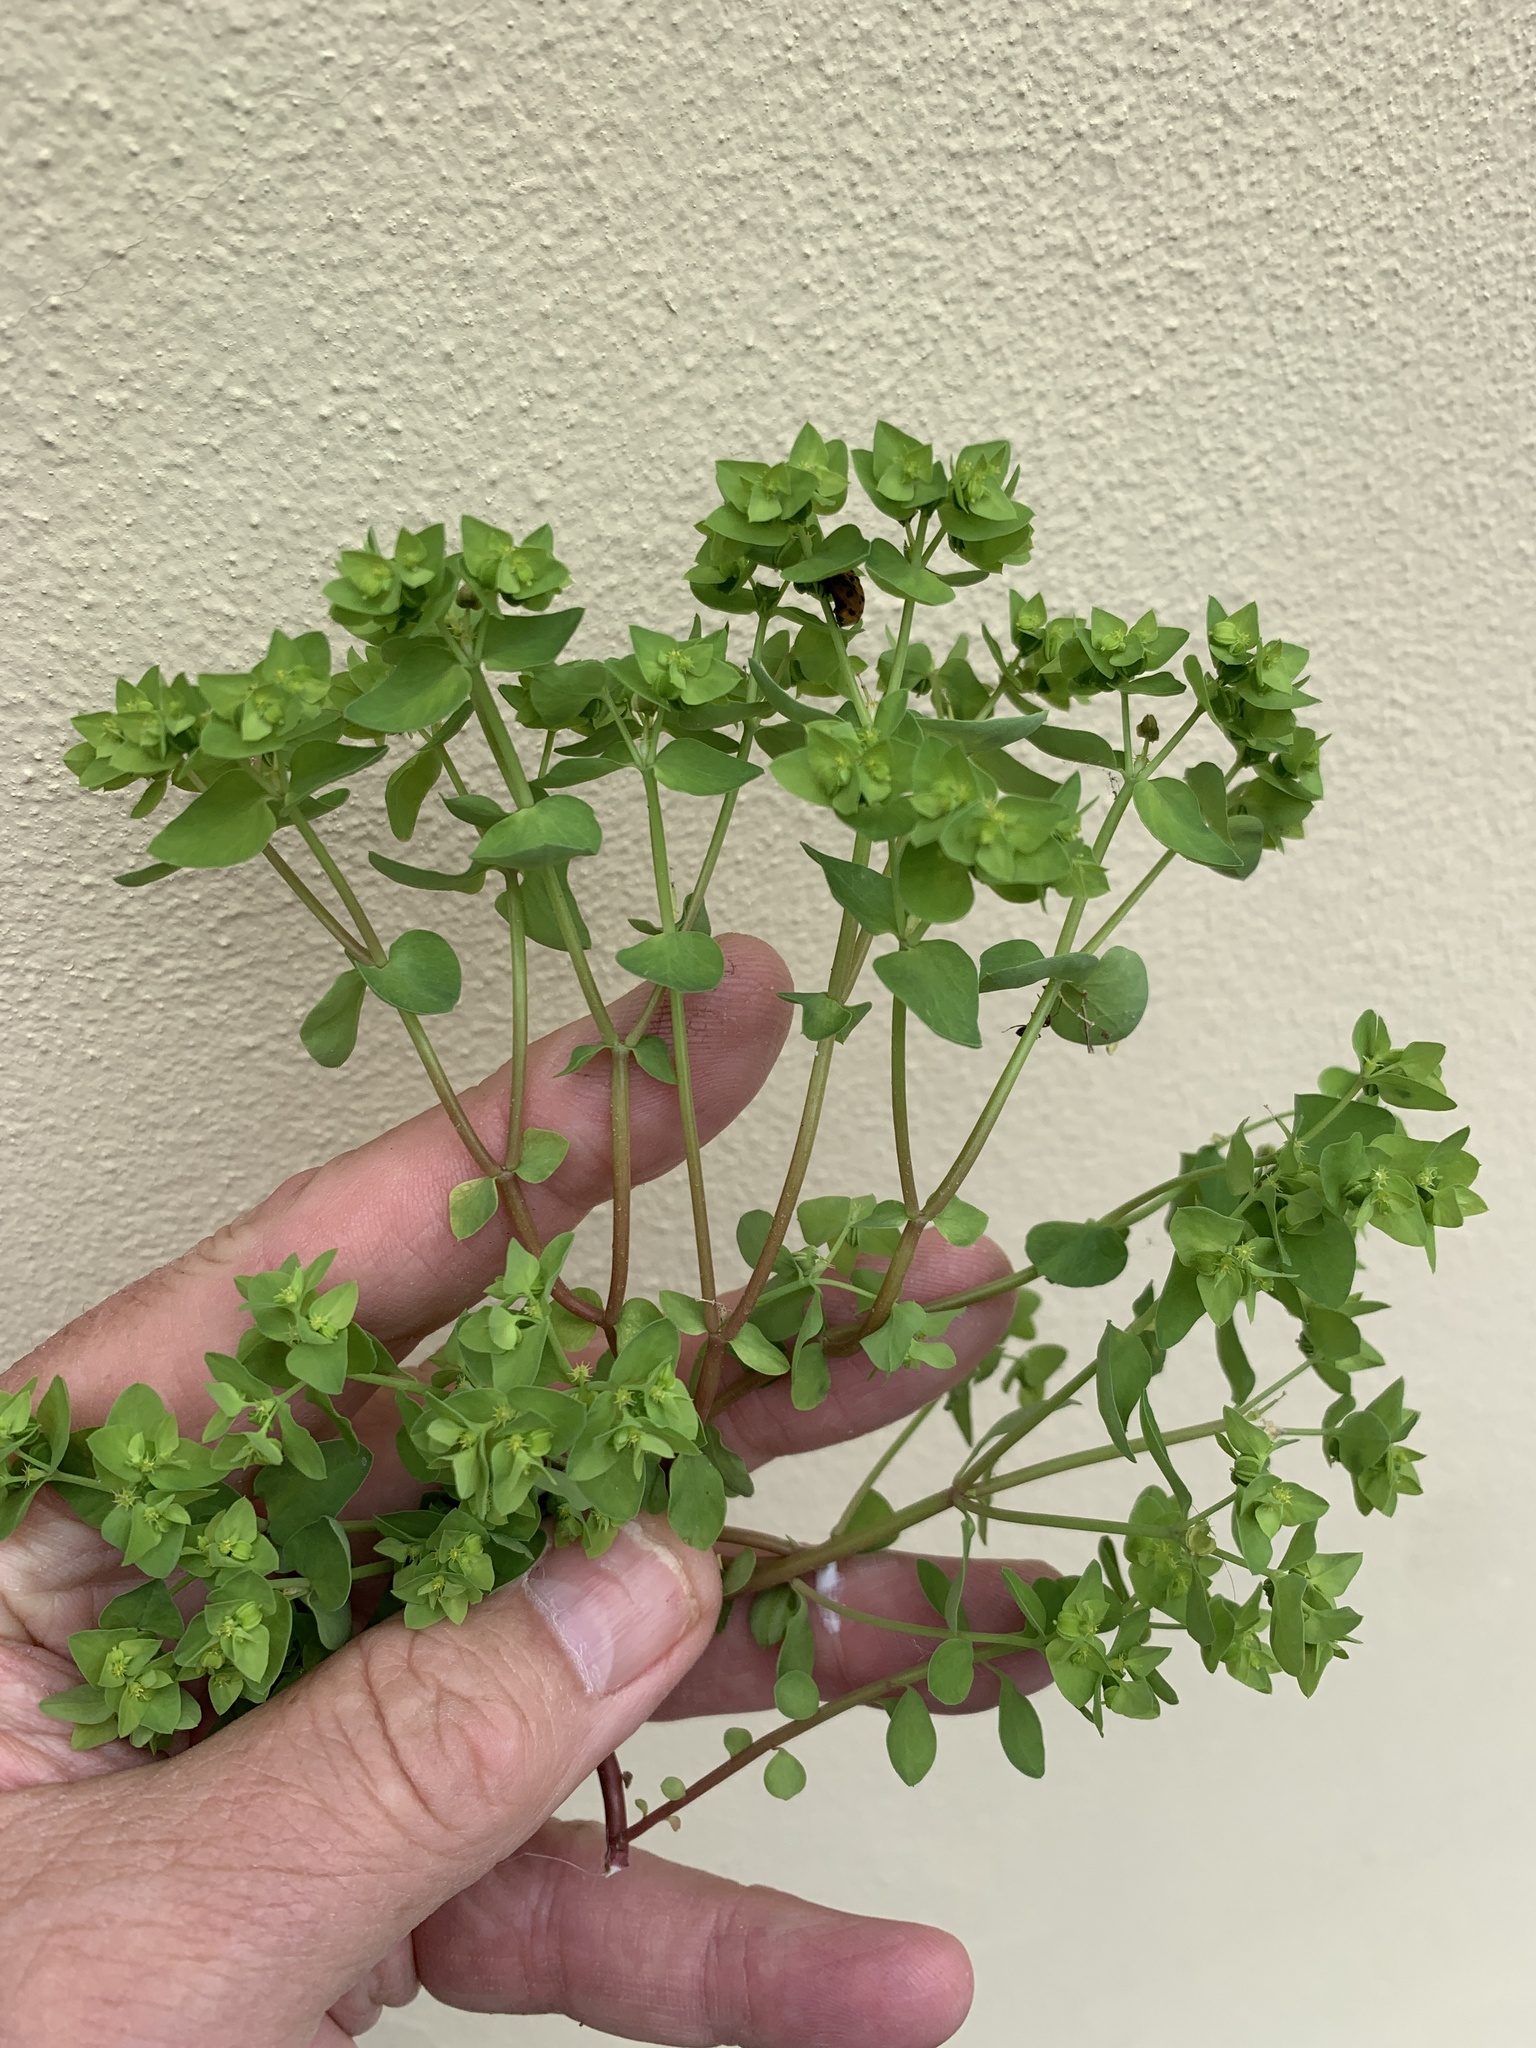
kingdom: Plantae
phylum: Tracheophyta
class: Magnoliopsida
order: Malpighiales
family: Euphorbiaceae
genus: Euphorbia
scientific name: Euphorbia peplus
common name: Petty spurge
